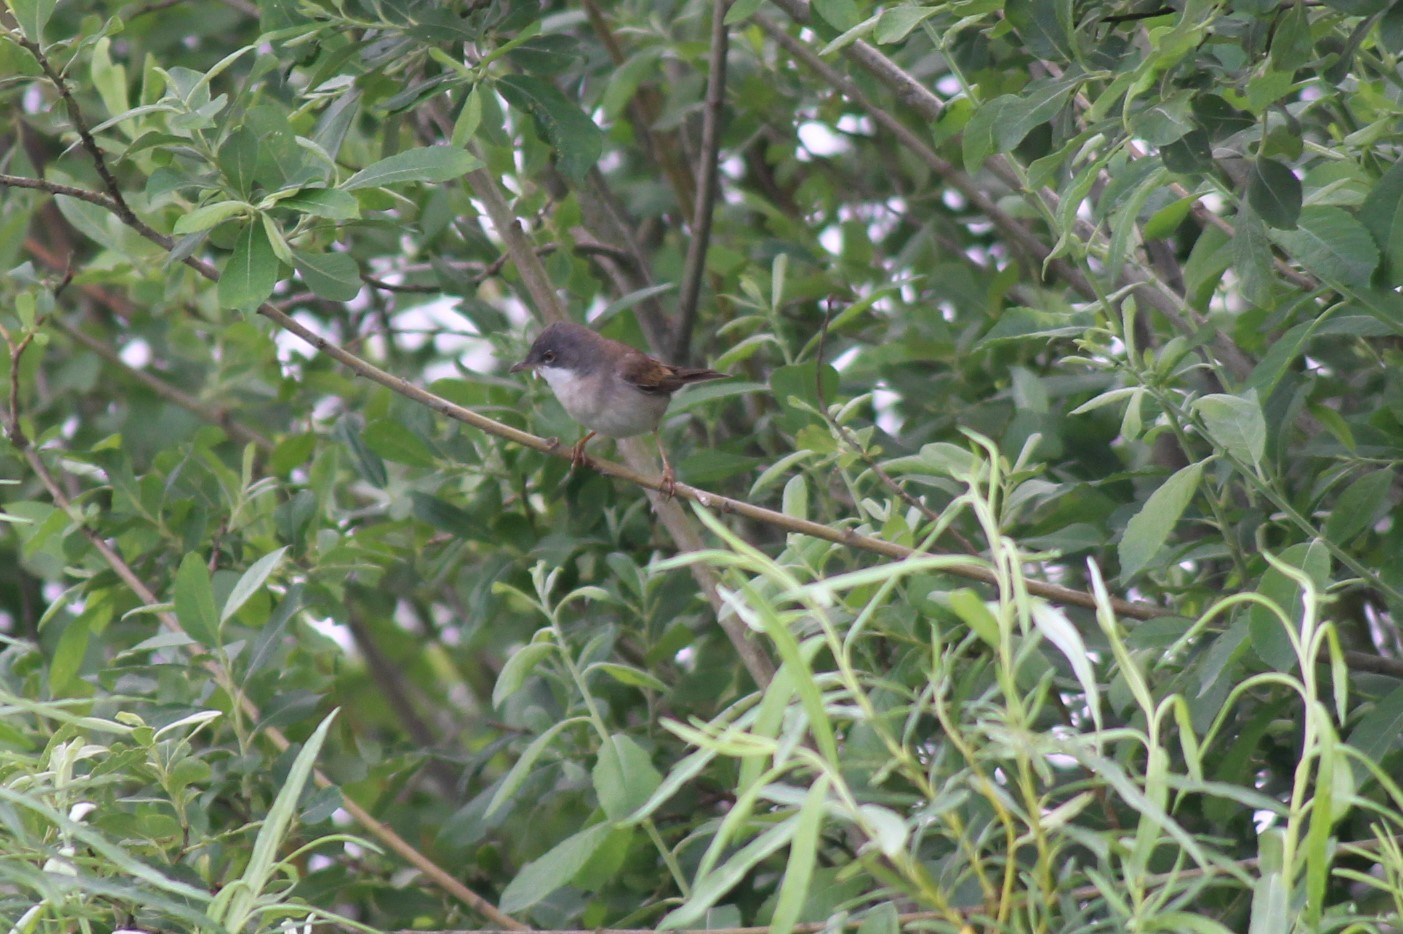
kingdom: Animalia
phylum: Chordata
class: Aves
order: Passeriformes
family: Sylviidae
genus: Sylvia
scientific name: Sylvia communis
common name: Common whitethroat
